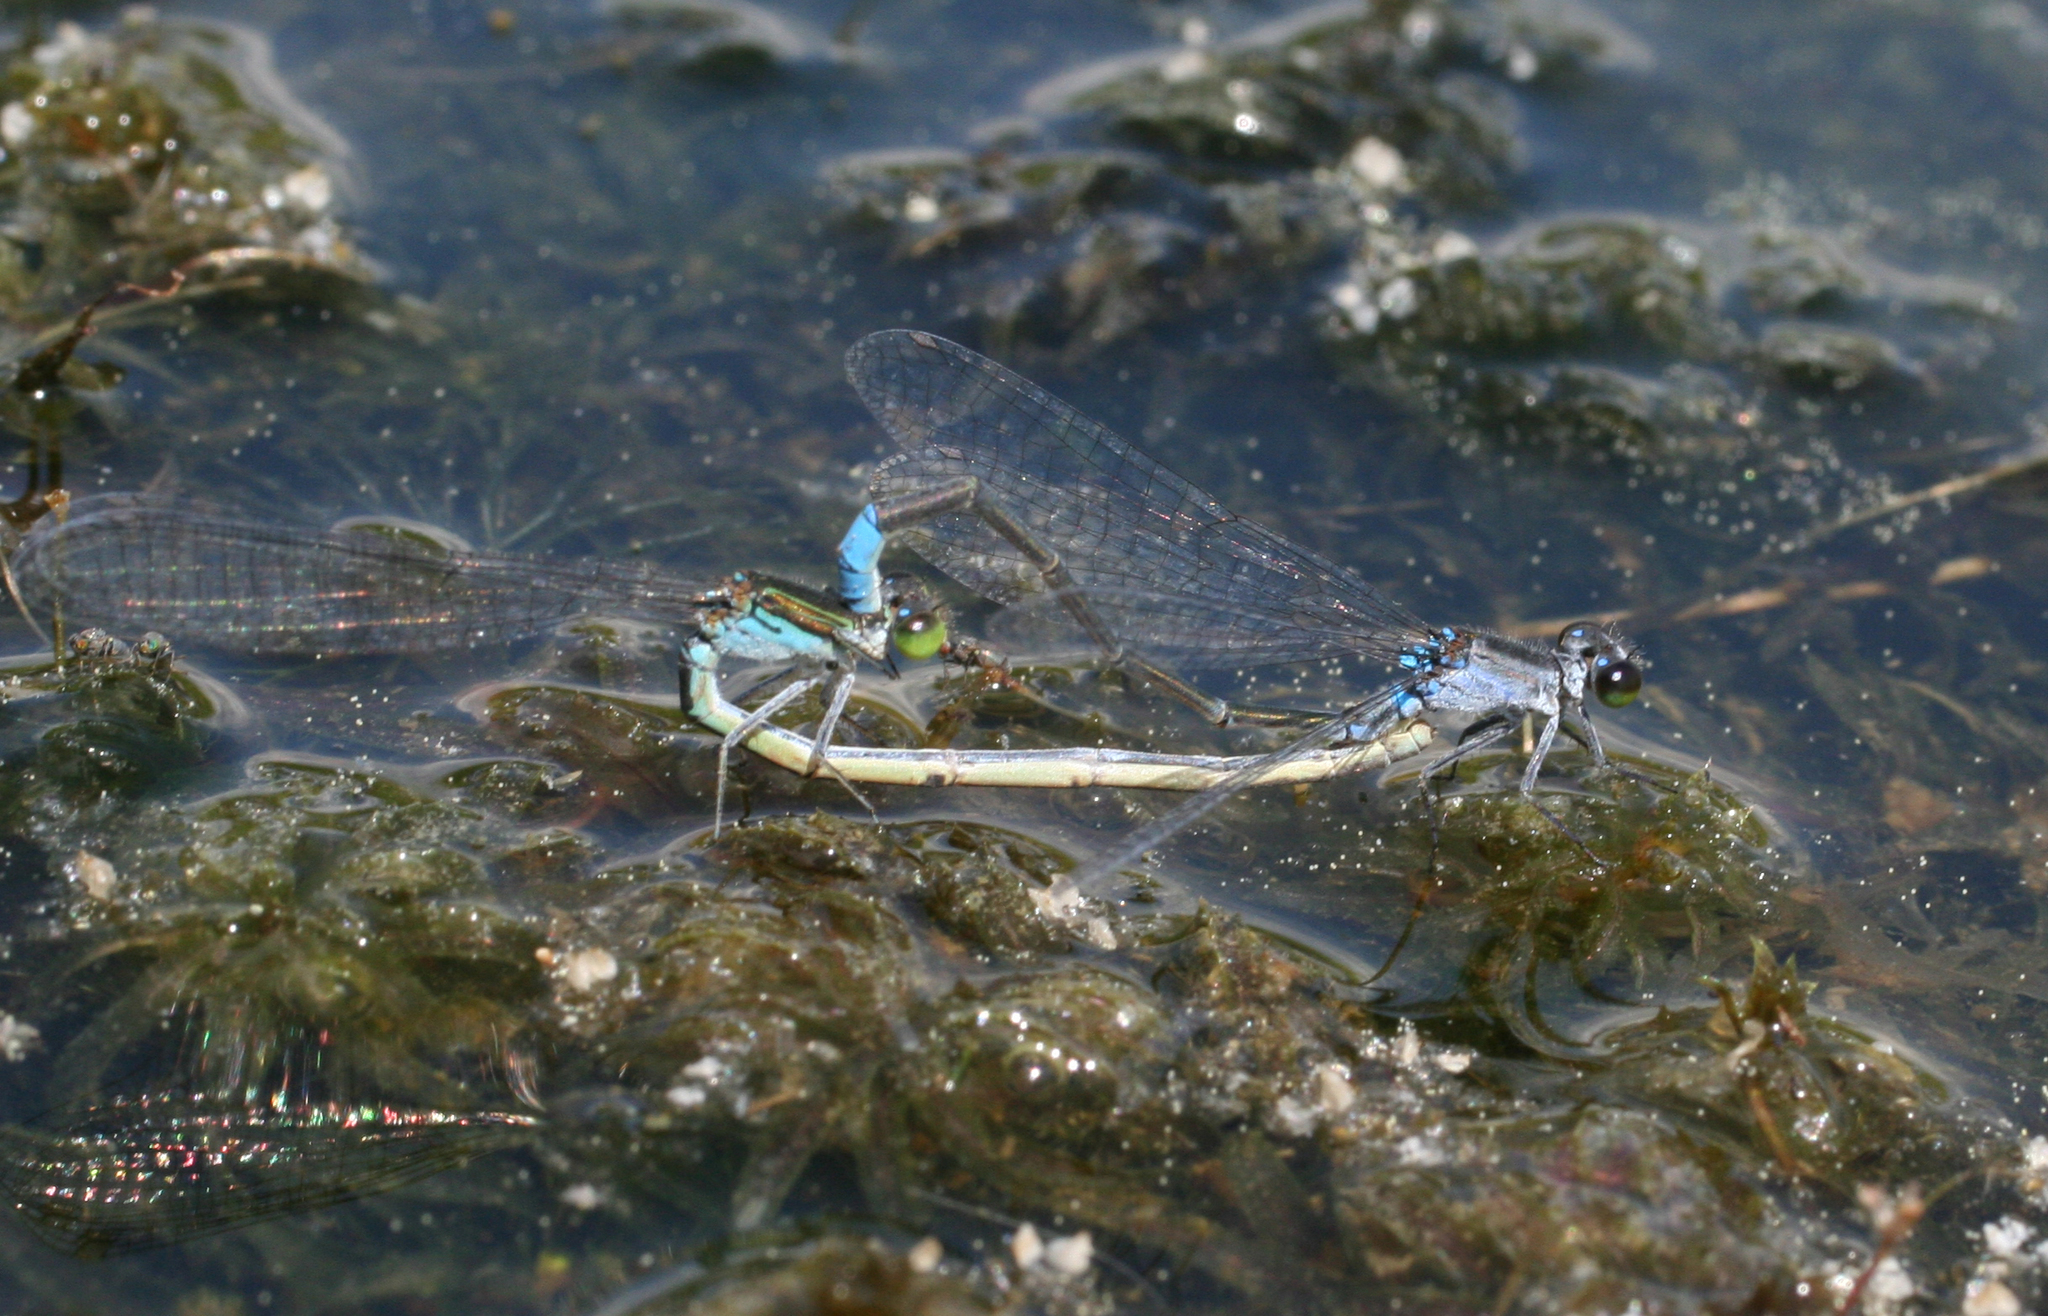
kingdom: Animalia
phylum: Arthropoda
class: Insecta
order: Odonata
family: Coenagrionidae
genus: Paracercion
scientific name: Paracercion calamorum
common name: Dusky lilysquatter
